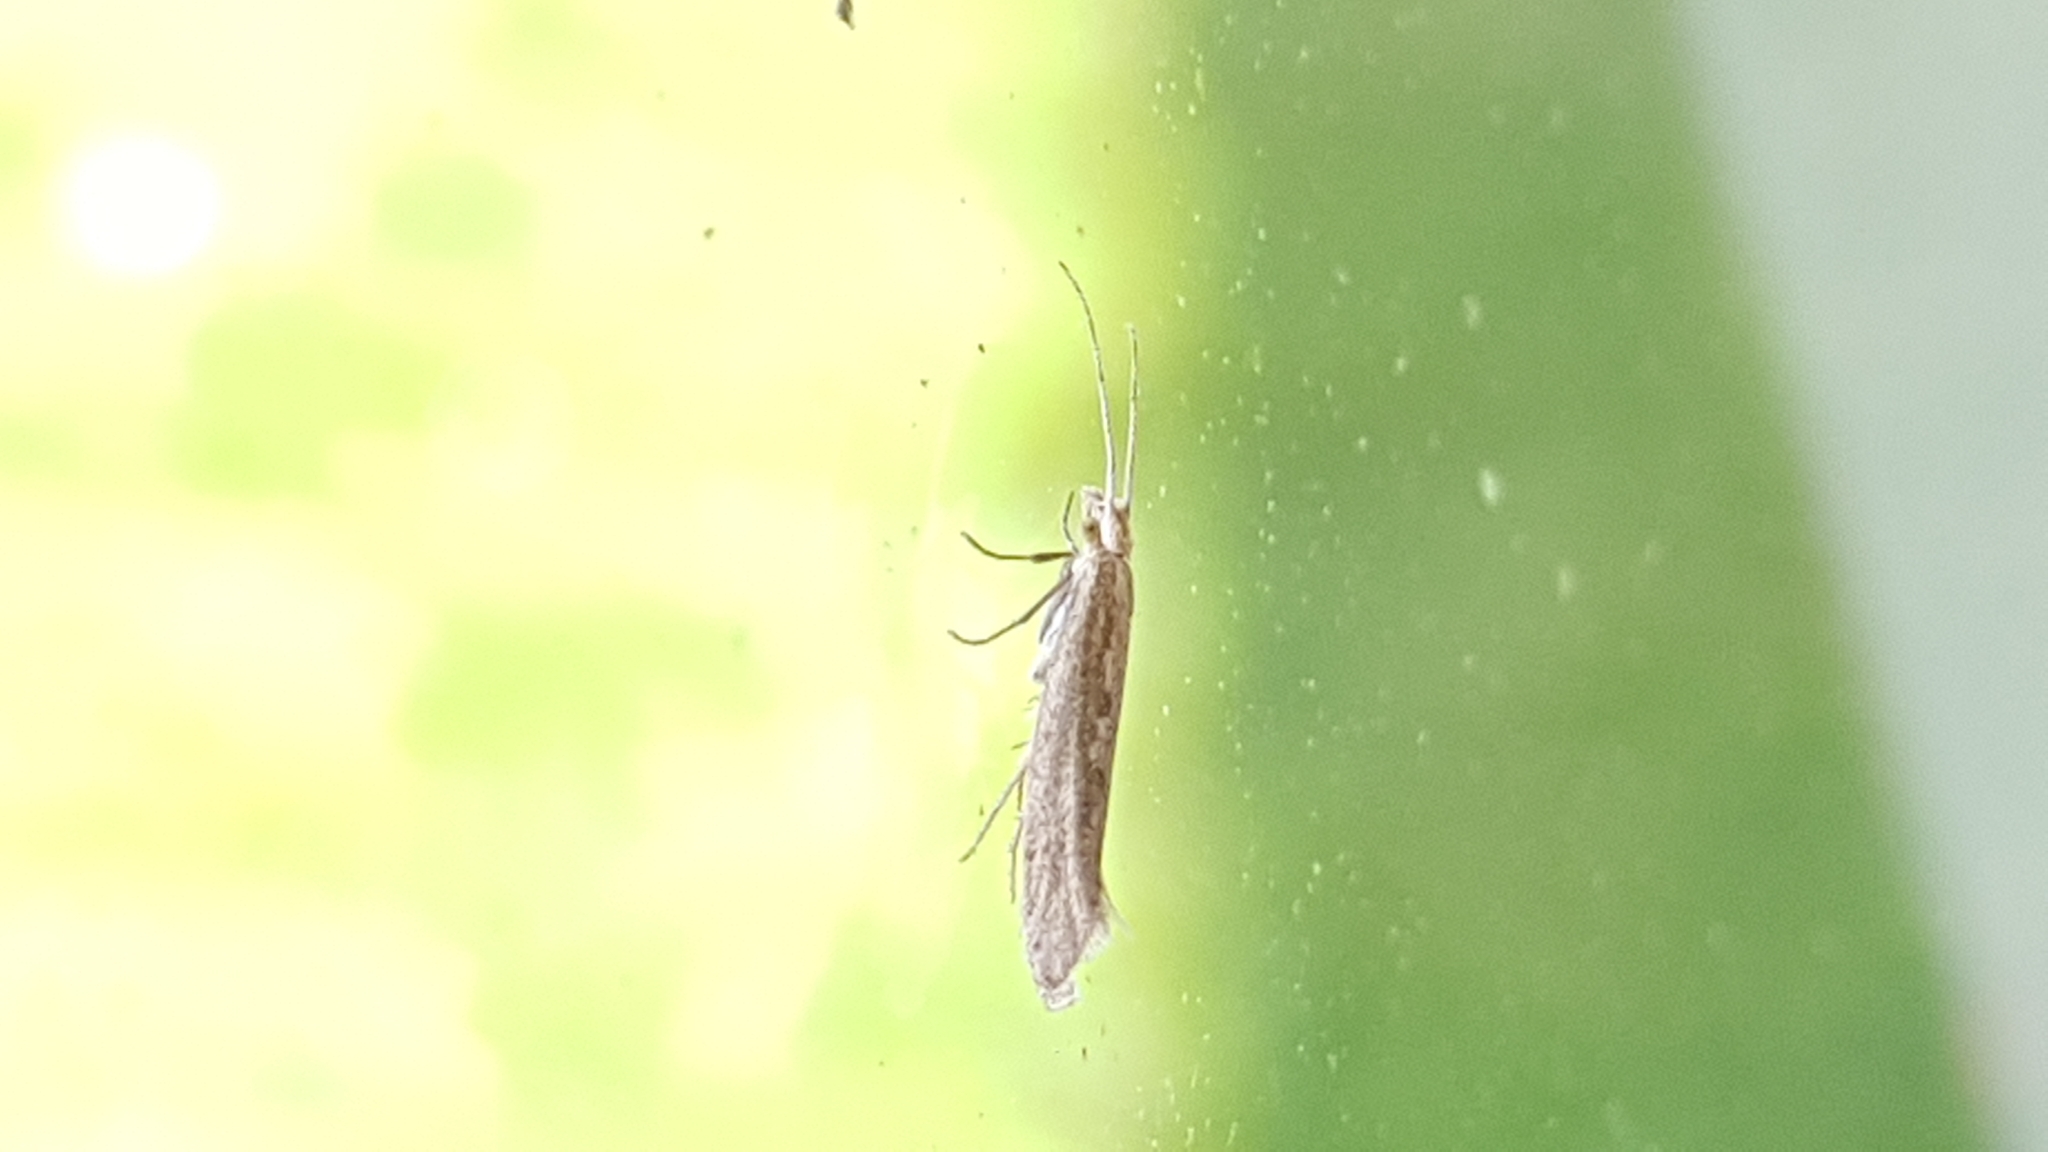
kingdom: Animalia
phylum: Arthropoda
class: Insecta
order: Lepidoptera
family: Plutellidae
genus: Plutella
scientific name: Plutella xylostella
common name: Diamond-back moth
